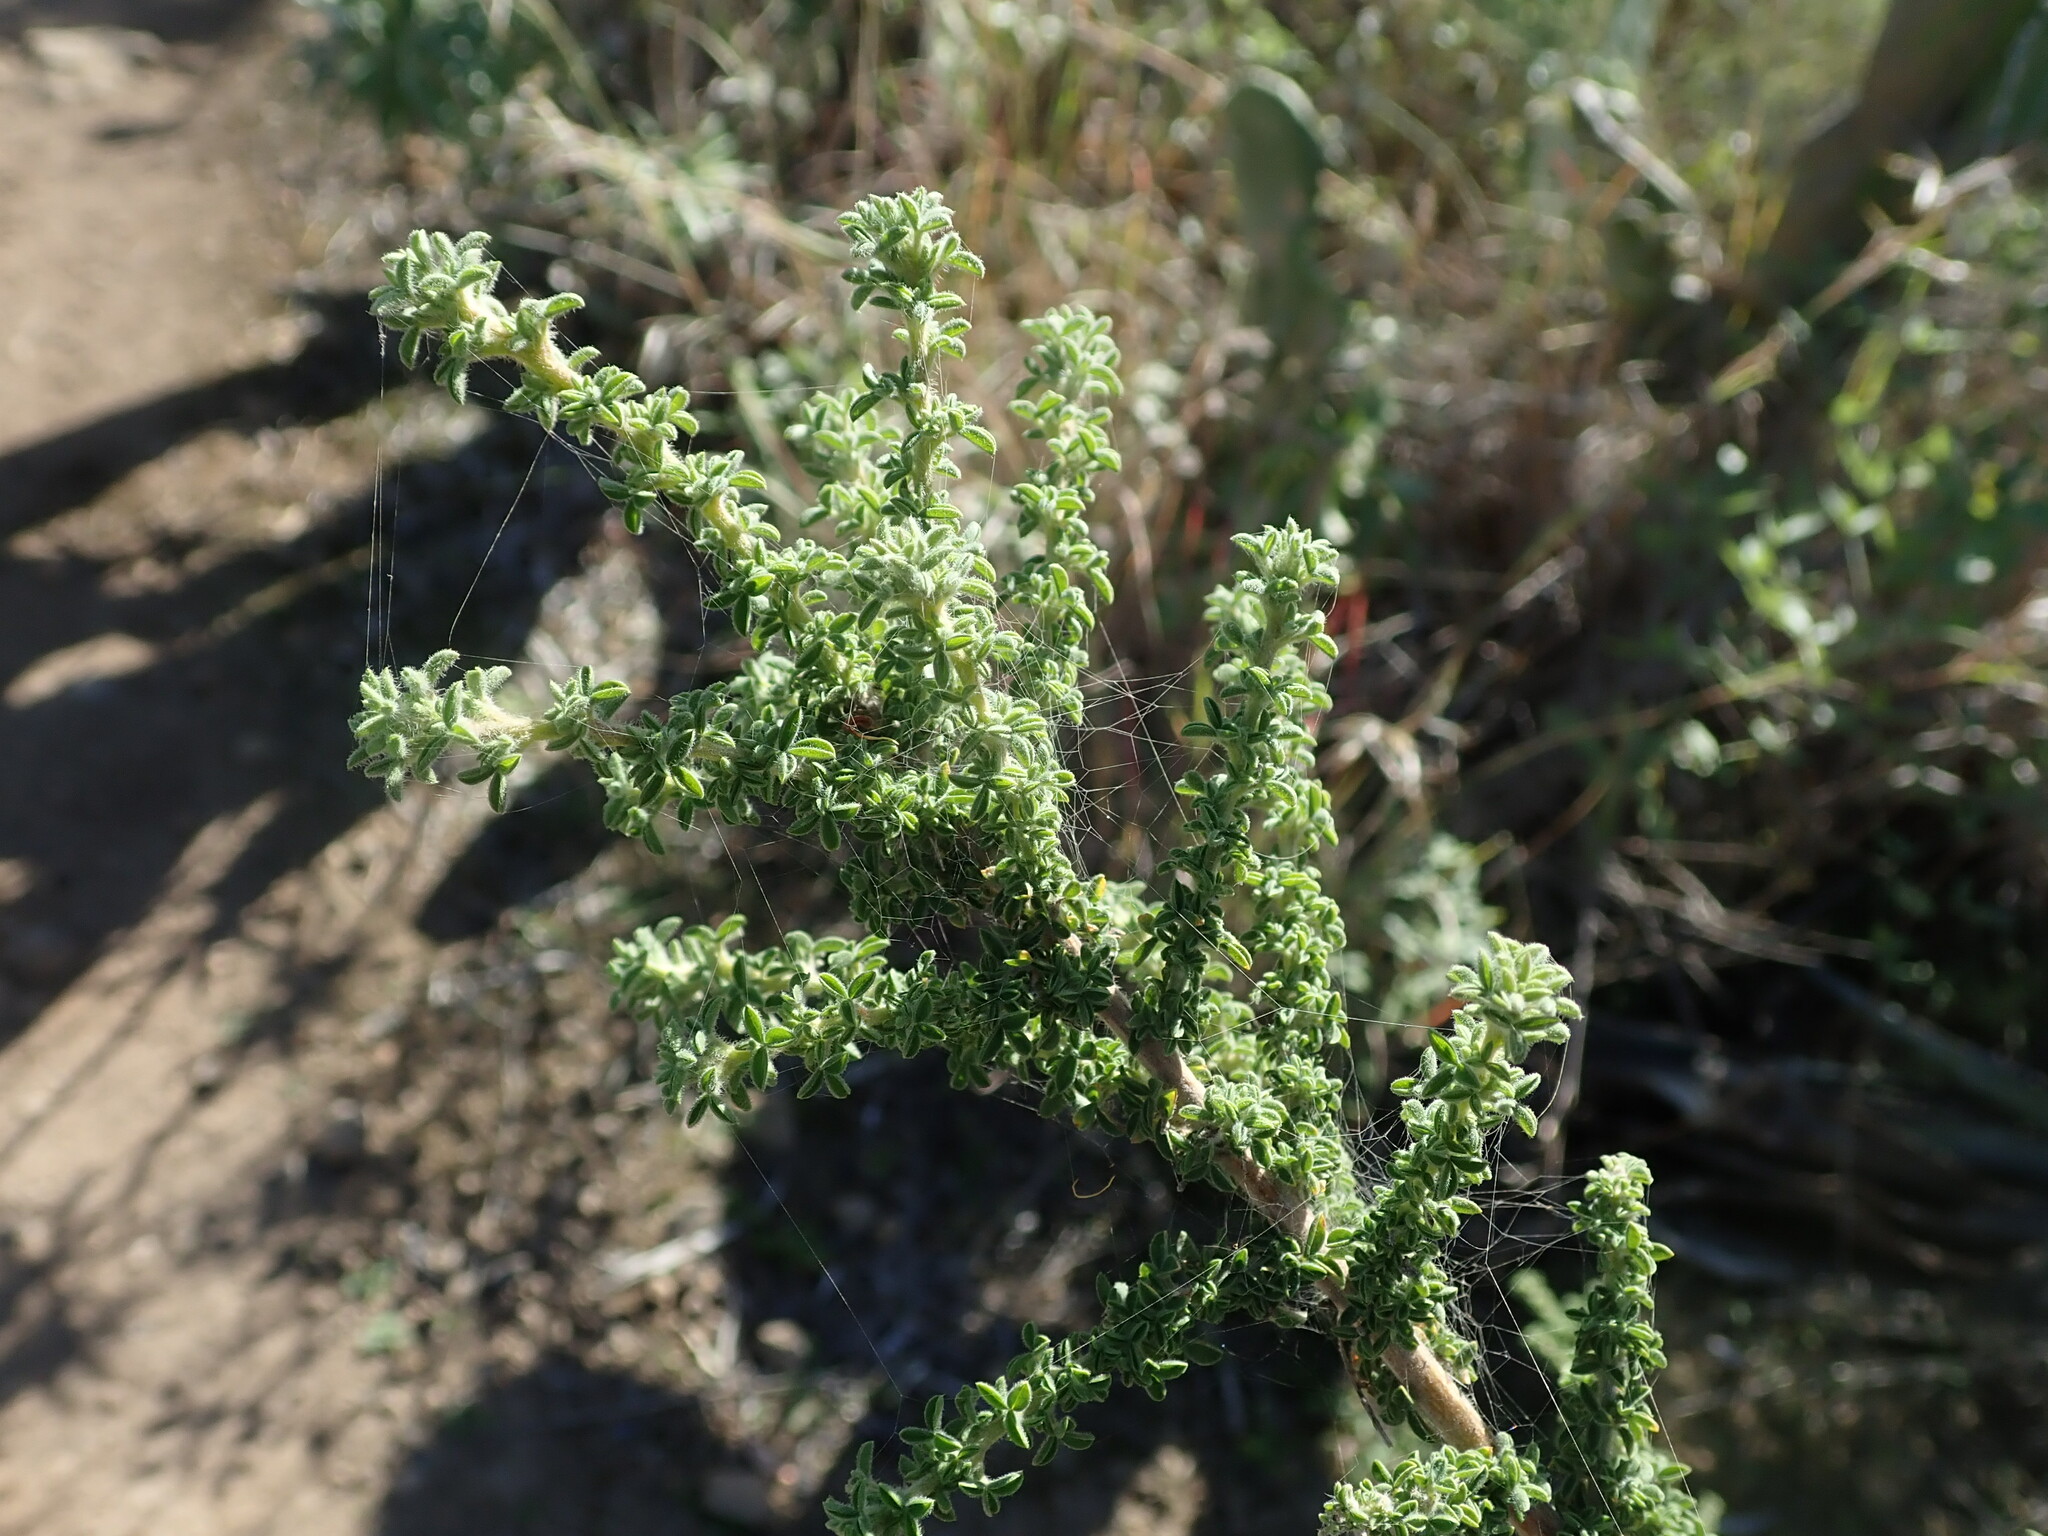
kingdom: Plantae
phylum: Tracheophyta
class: Magnoliopsida
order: Fabales
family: Fabaceae
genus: Adenocarpus
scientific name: Adenocarpus foliolosus
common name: Canary island flatpod
